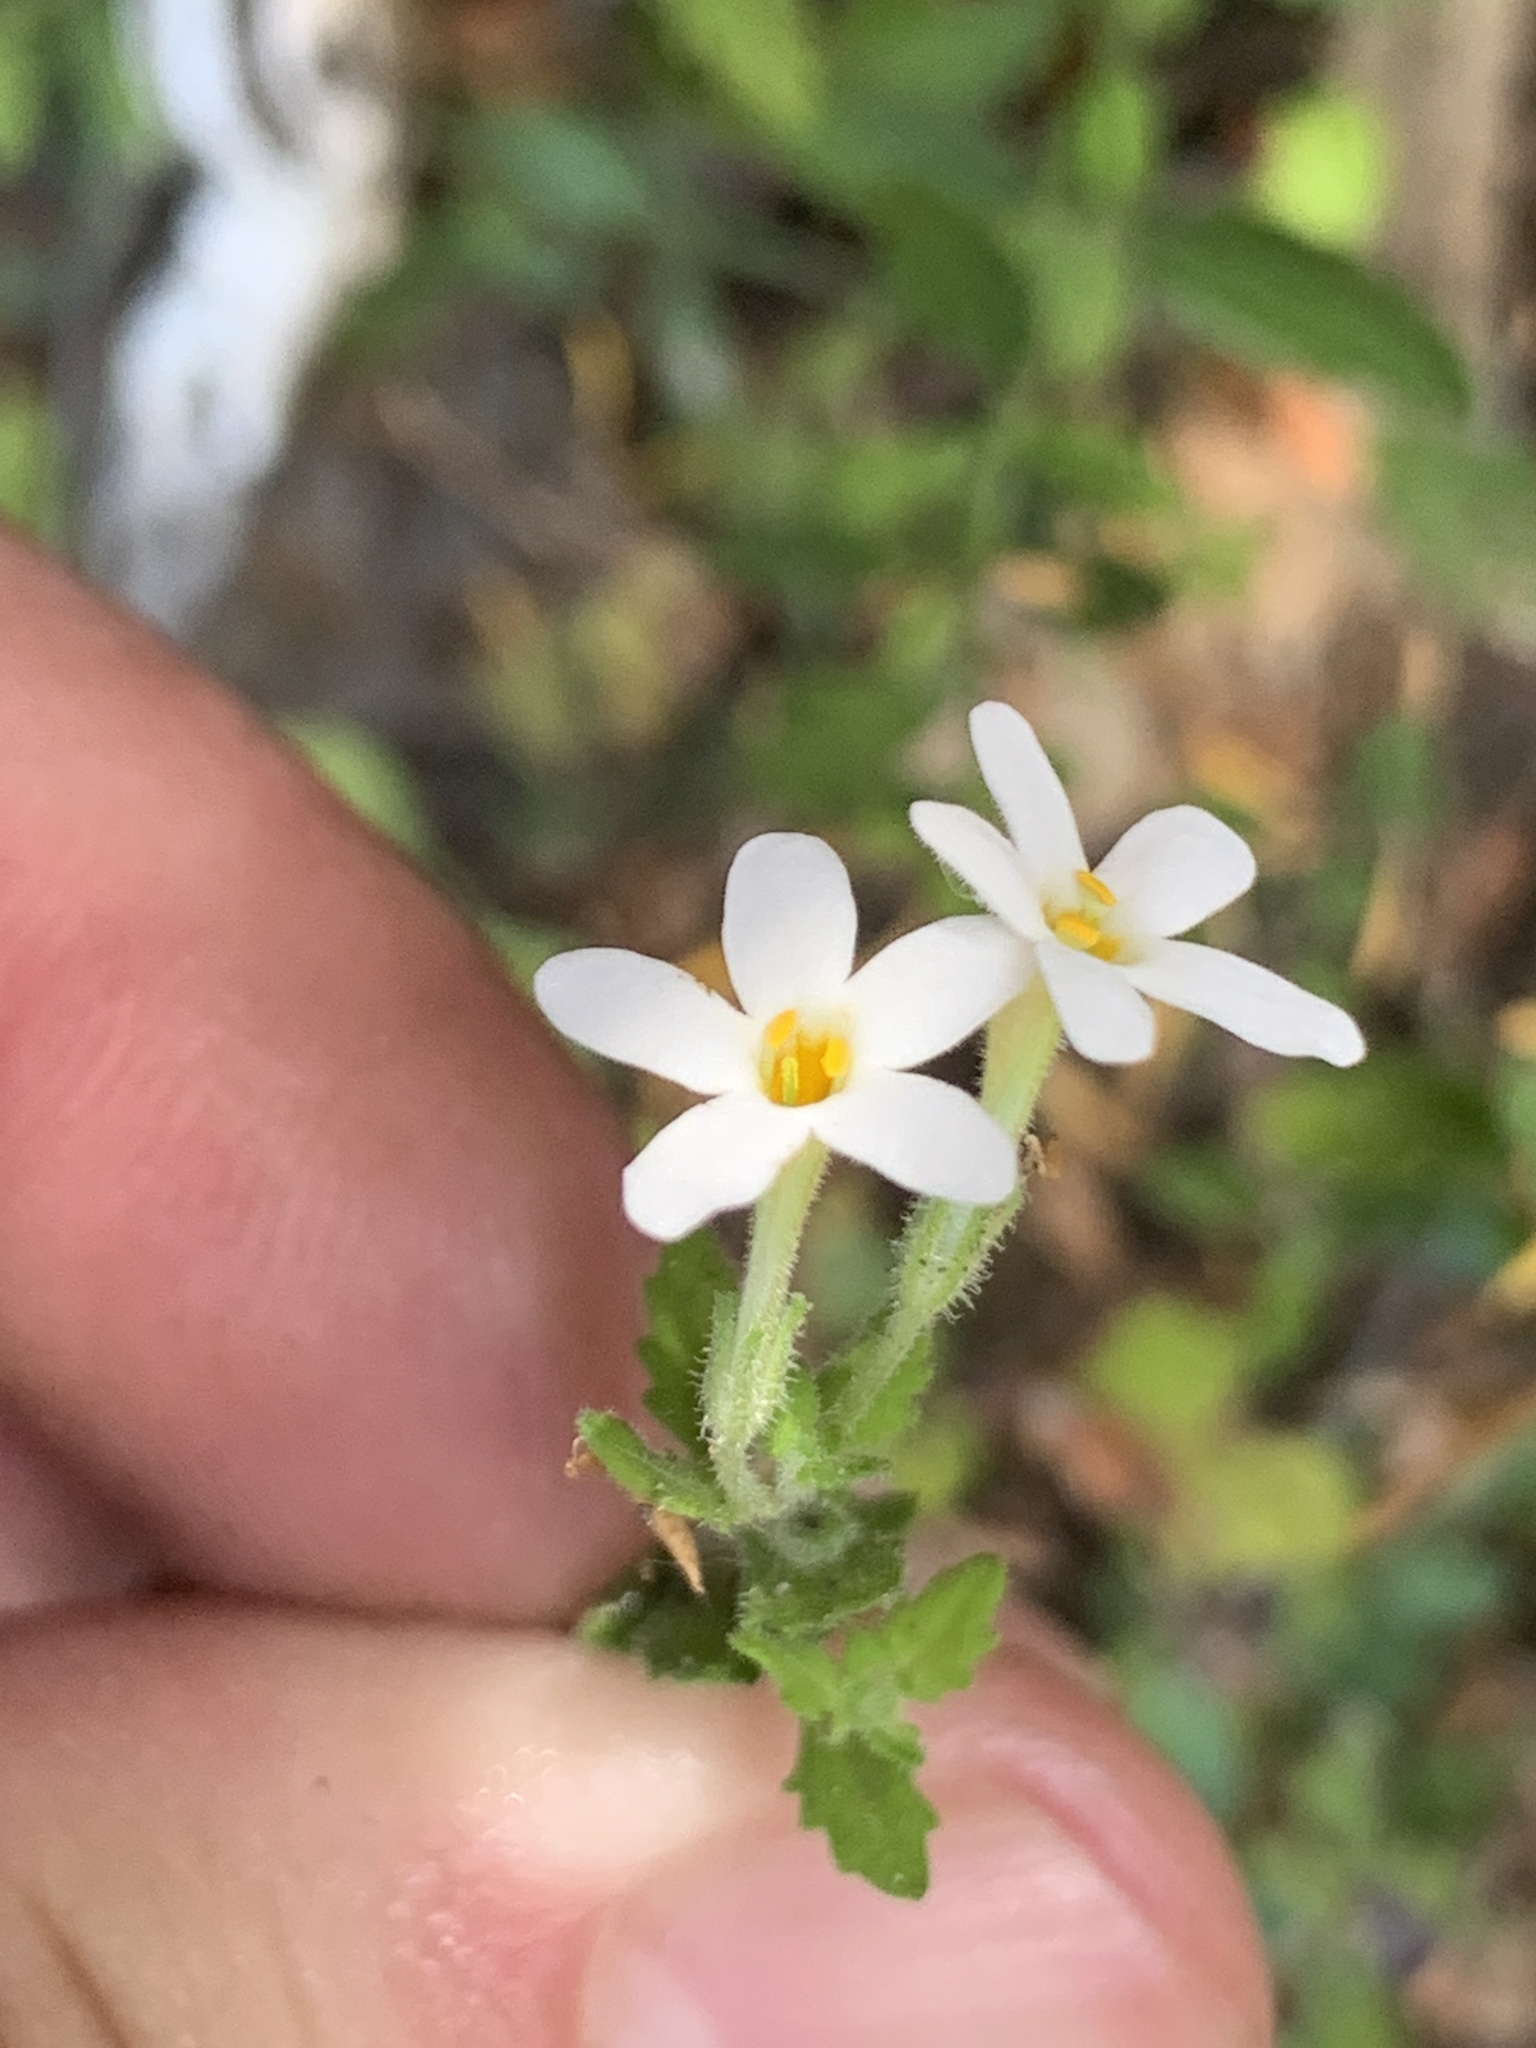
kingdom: Plantae
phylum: Tracheophyta
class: Magnoliopsida
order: Lamiales
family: Scrophulariaceae
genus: Chaenostoma
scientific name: Chaenostoma hispidum
